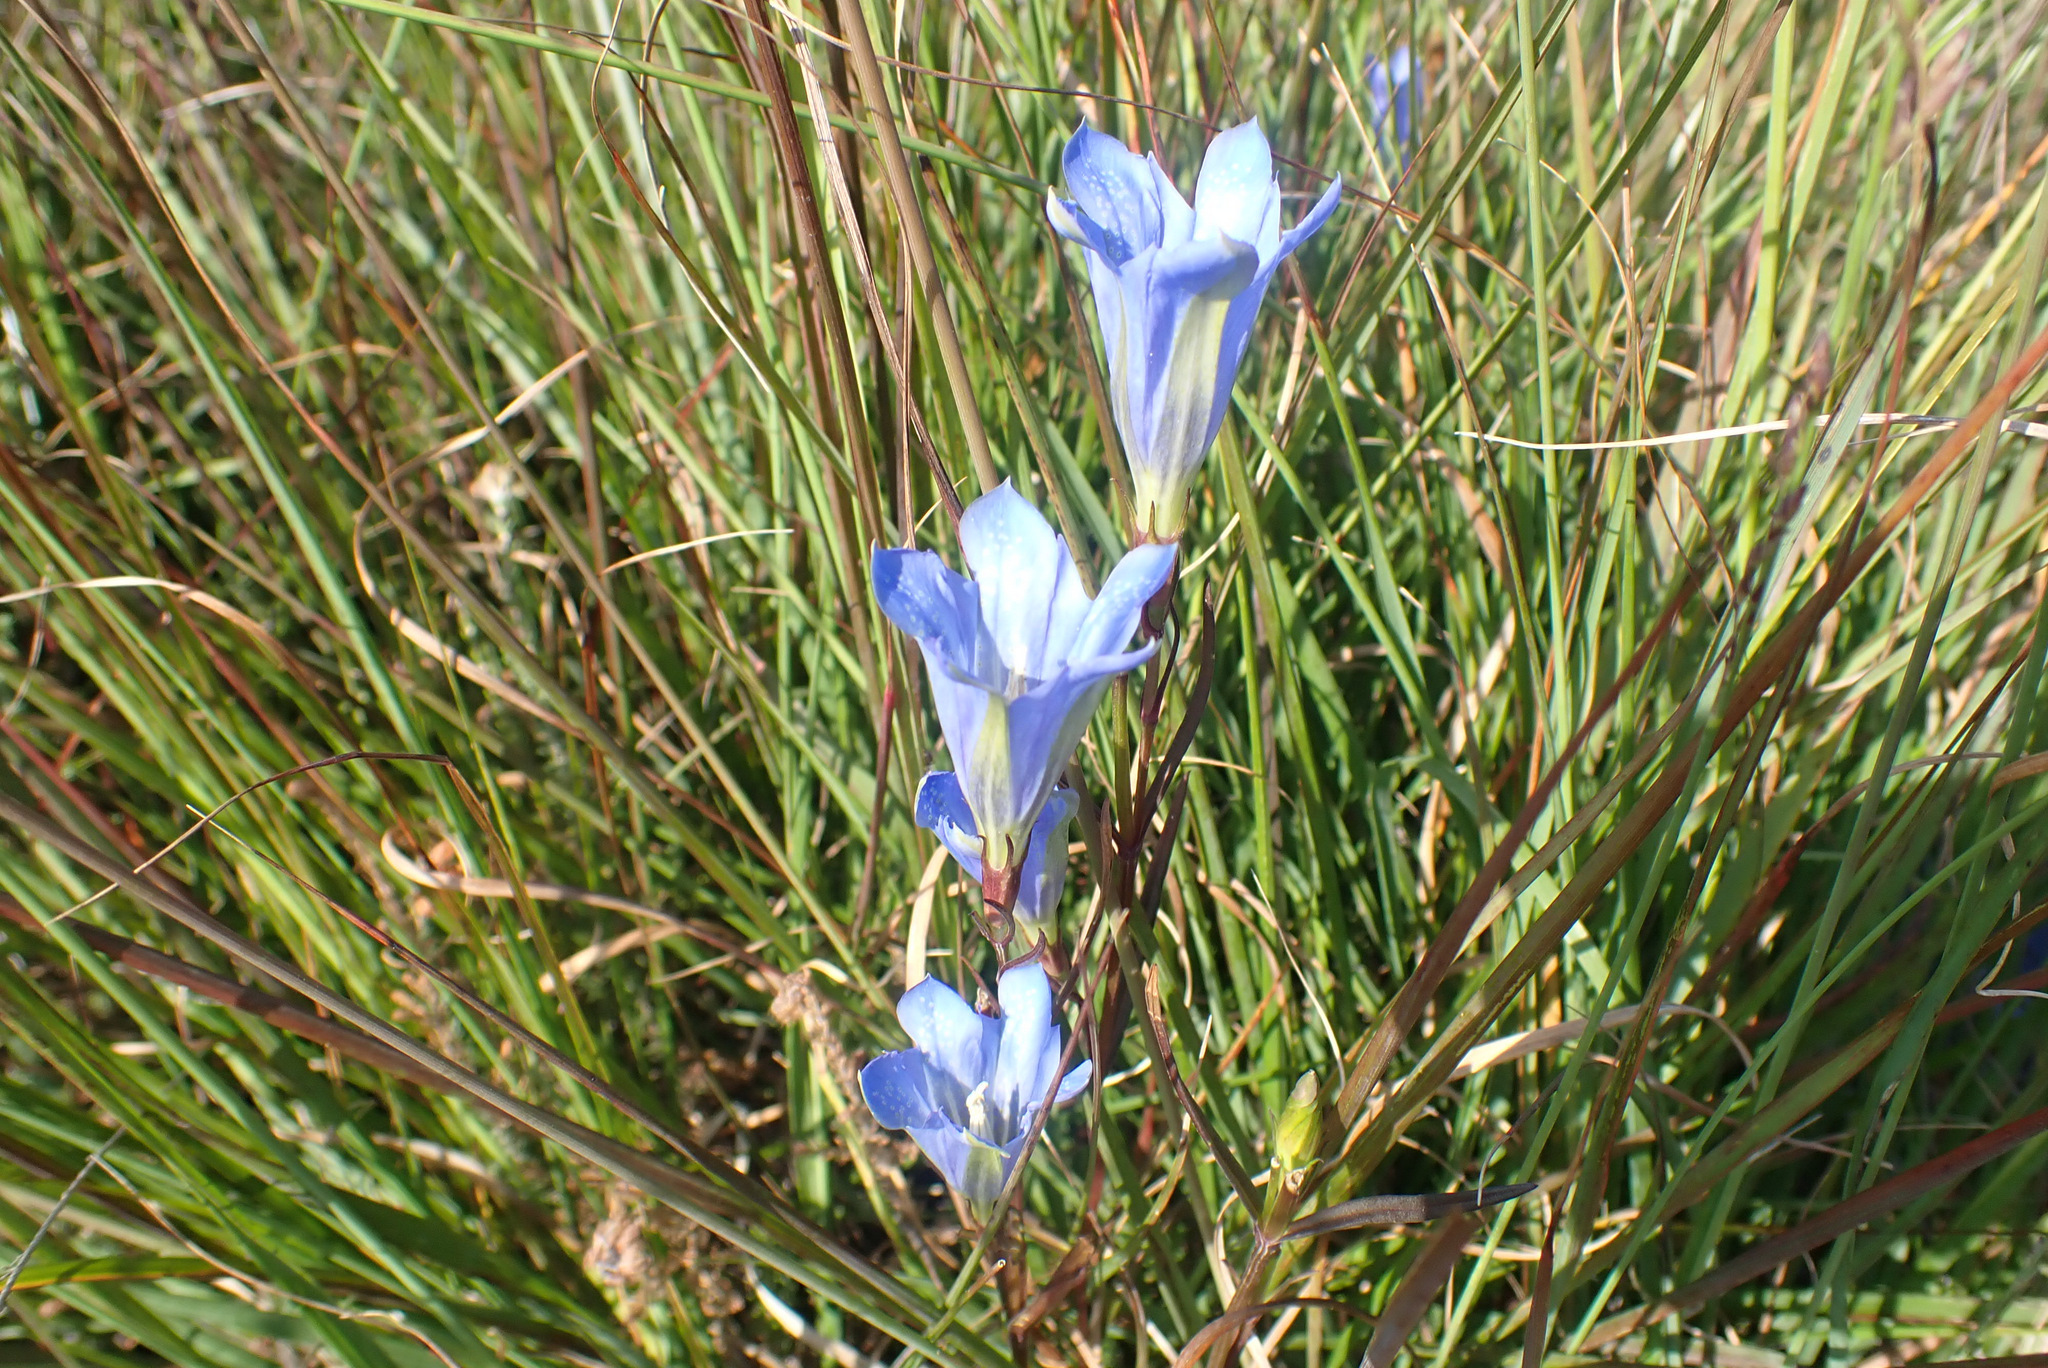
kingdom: Plantae
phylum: Tracheophyta
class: Magnoliopsida
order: Gentianales
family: Gentianaceae
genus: Gentiana
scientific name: Gentiana pneumonanthe
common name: Marsh gentian
